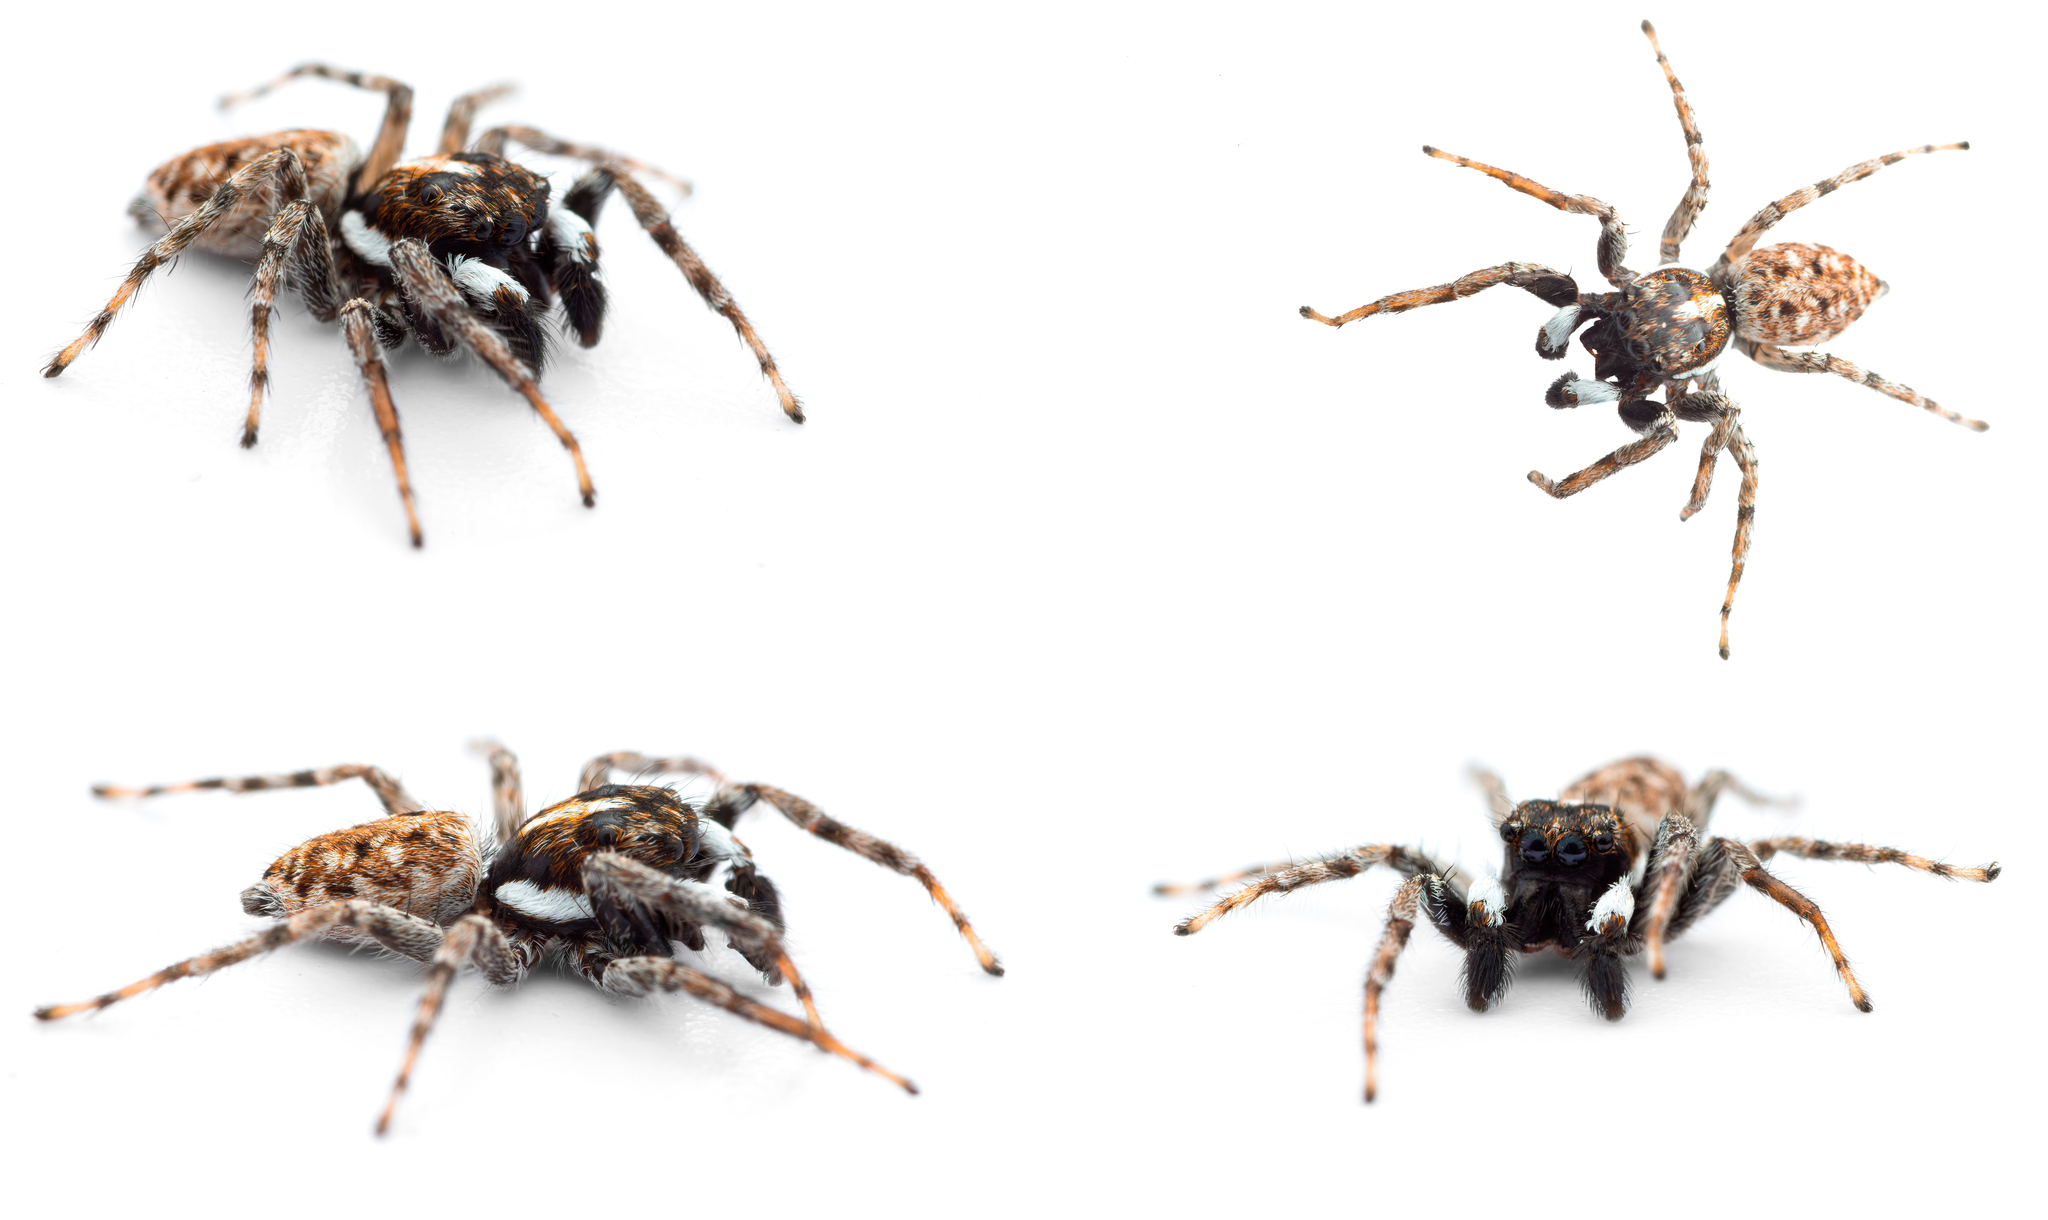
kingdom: Animalia
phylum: Arthropoda
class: Arachnida
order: Araneae
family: Salticidae
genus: Menemerus
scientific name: Menemerus semilimbatus
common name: Jumping spider
